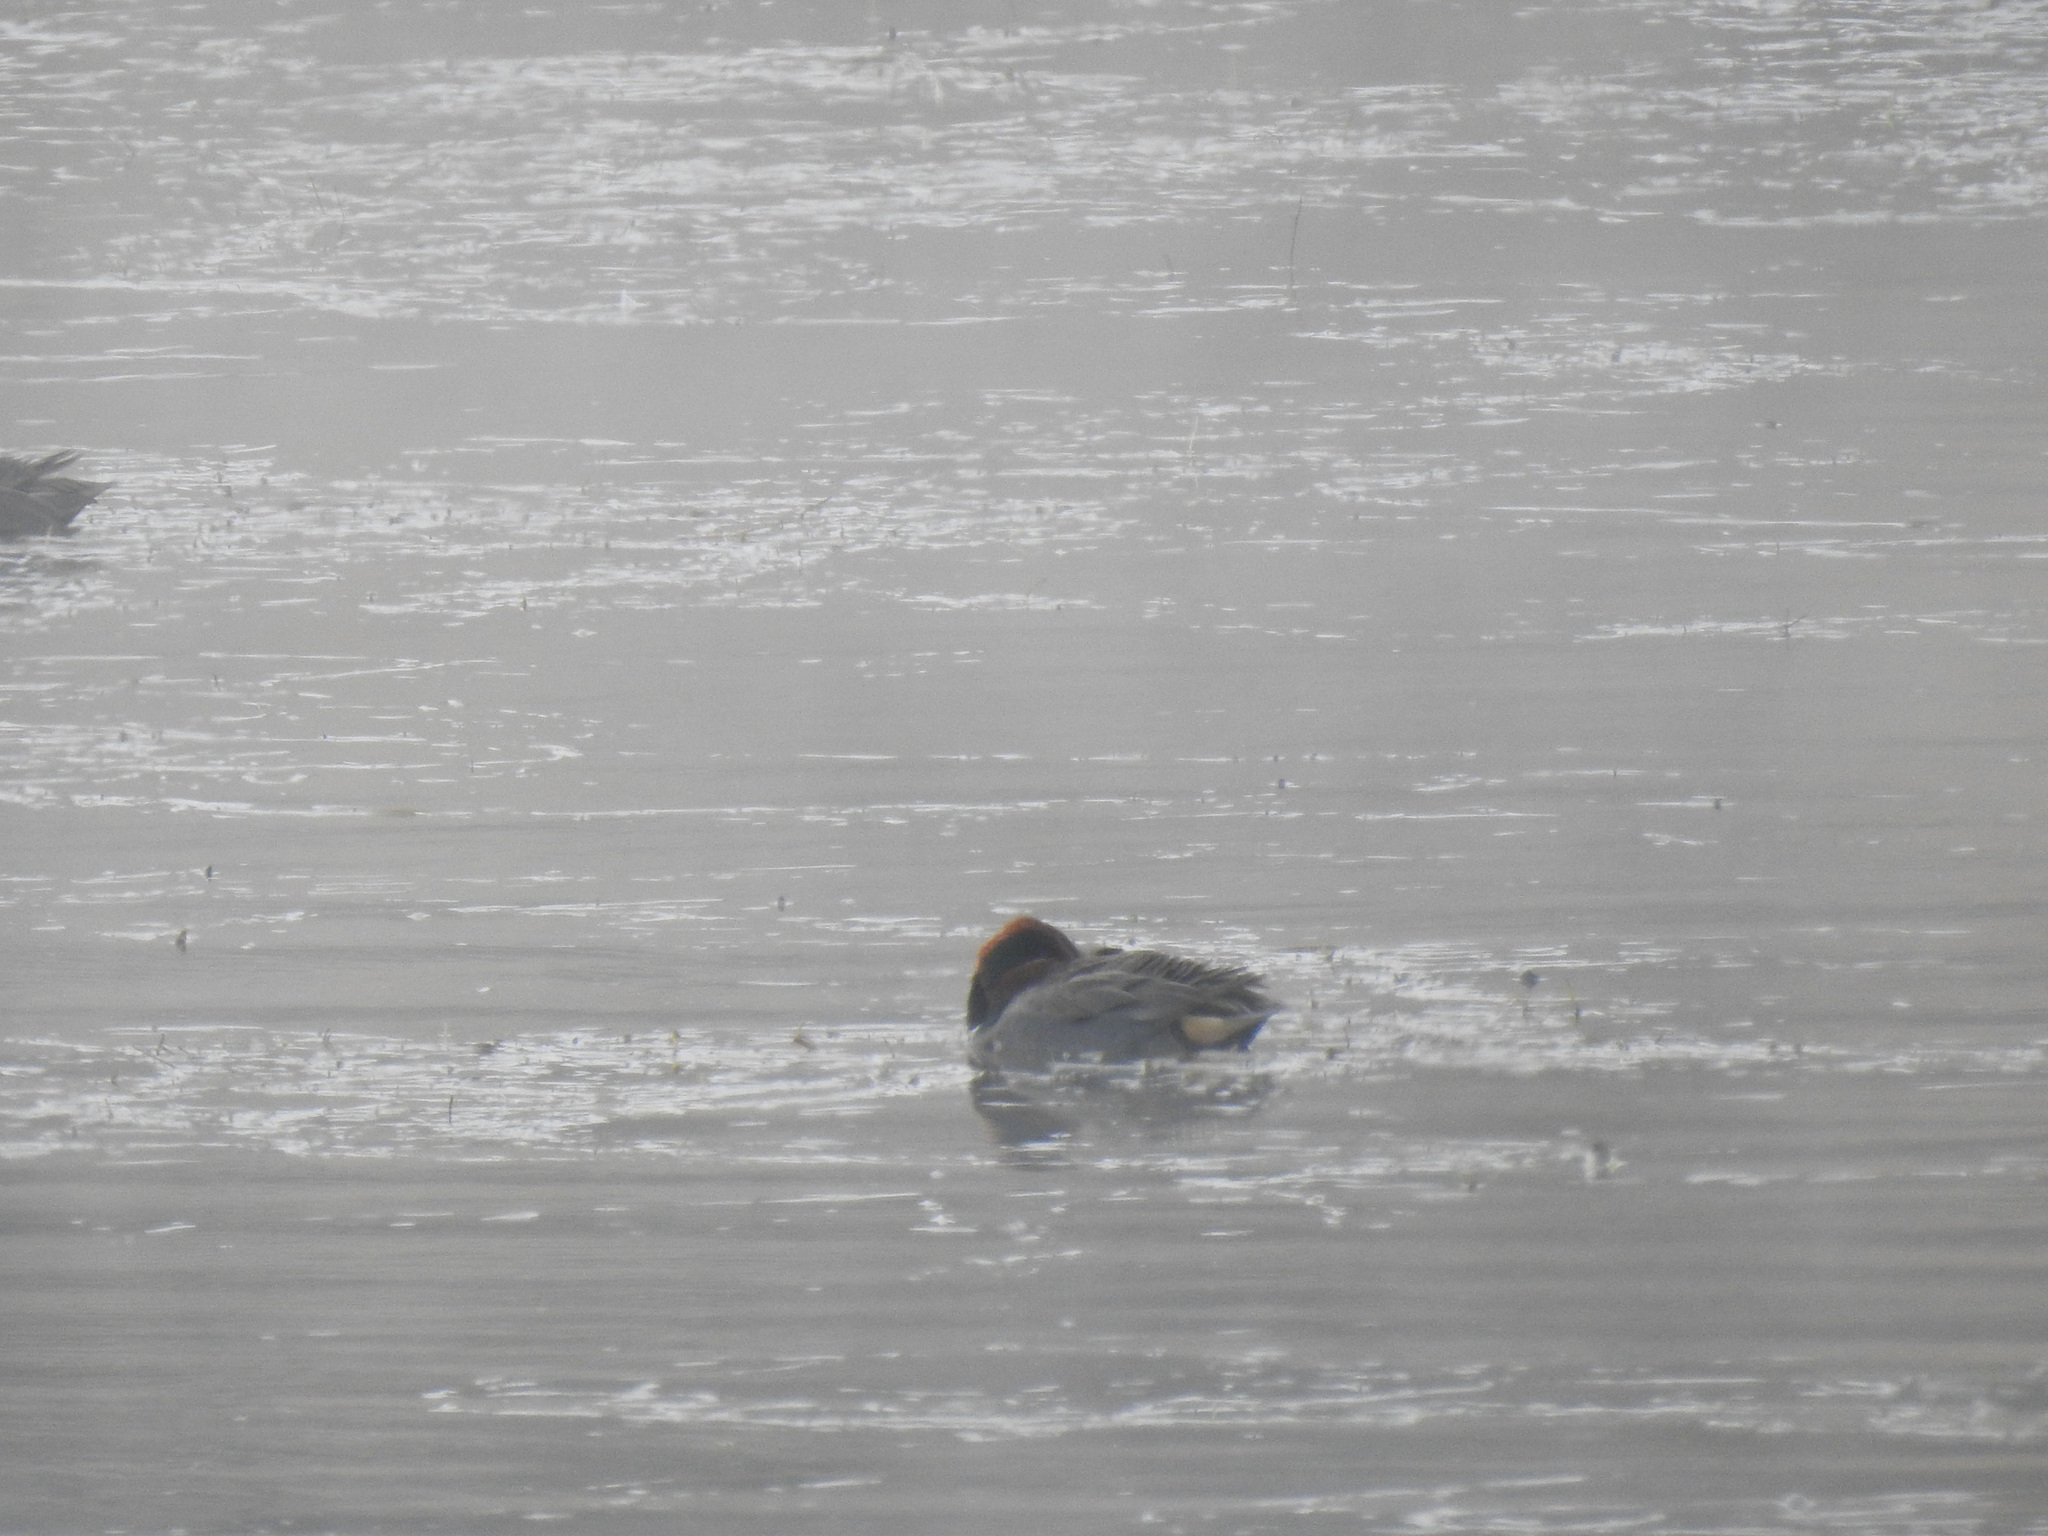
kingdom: Animalia
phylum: Chordata
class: Aves
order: Anseriformes
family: Anatidae
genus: Anas
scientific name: Anas crecca
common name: Eurasian teal
